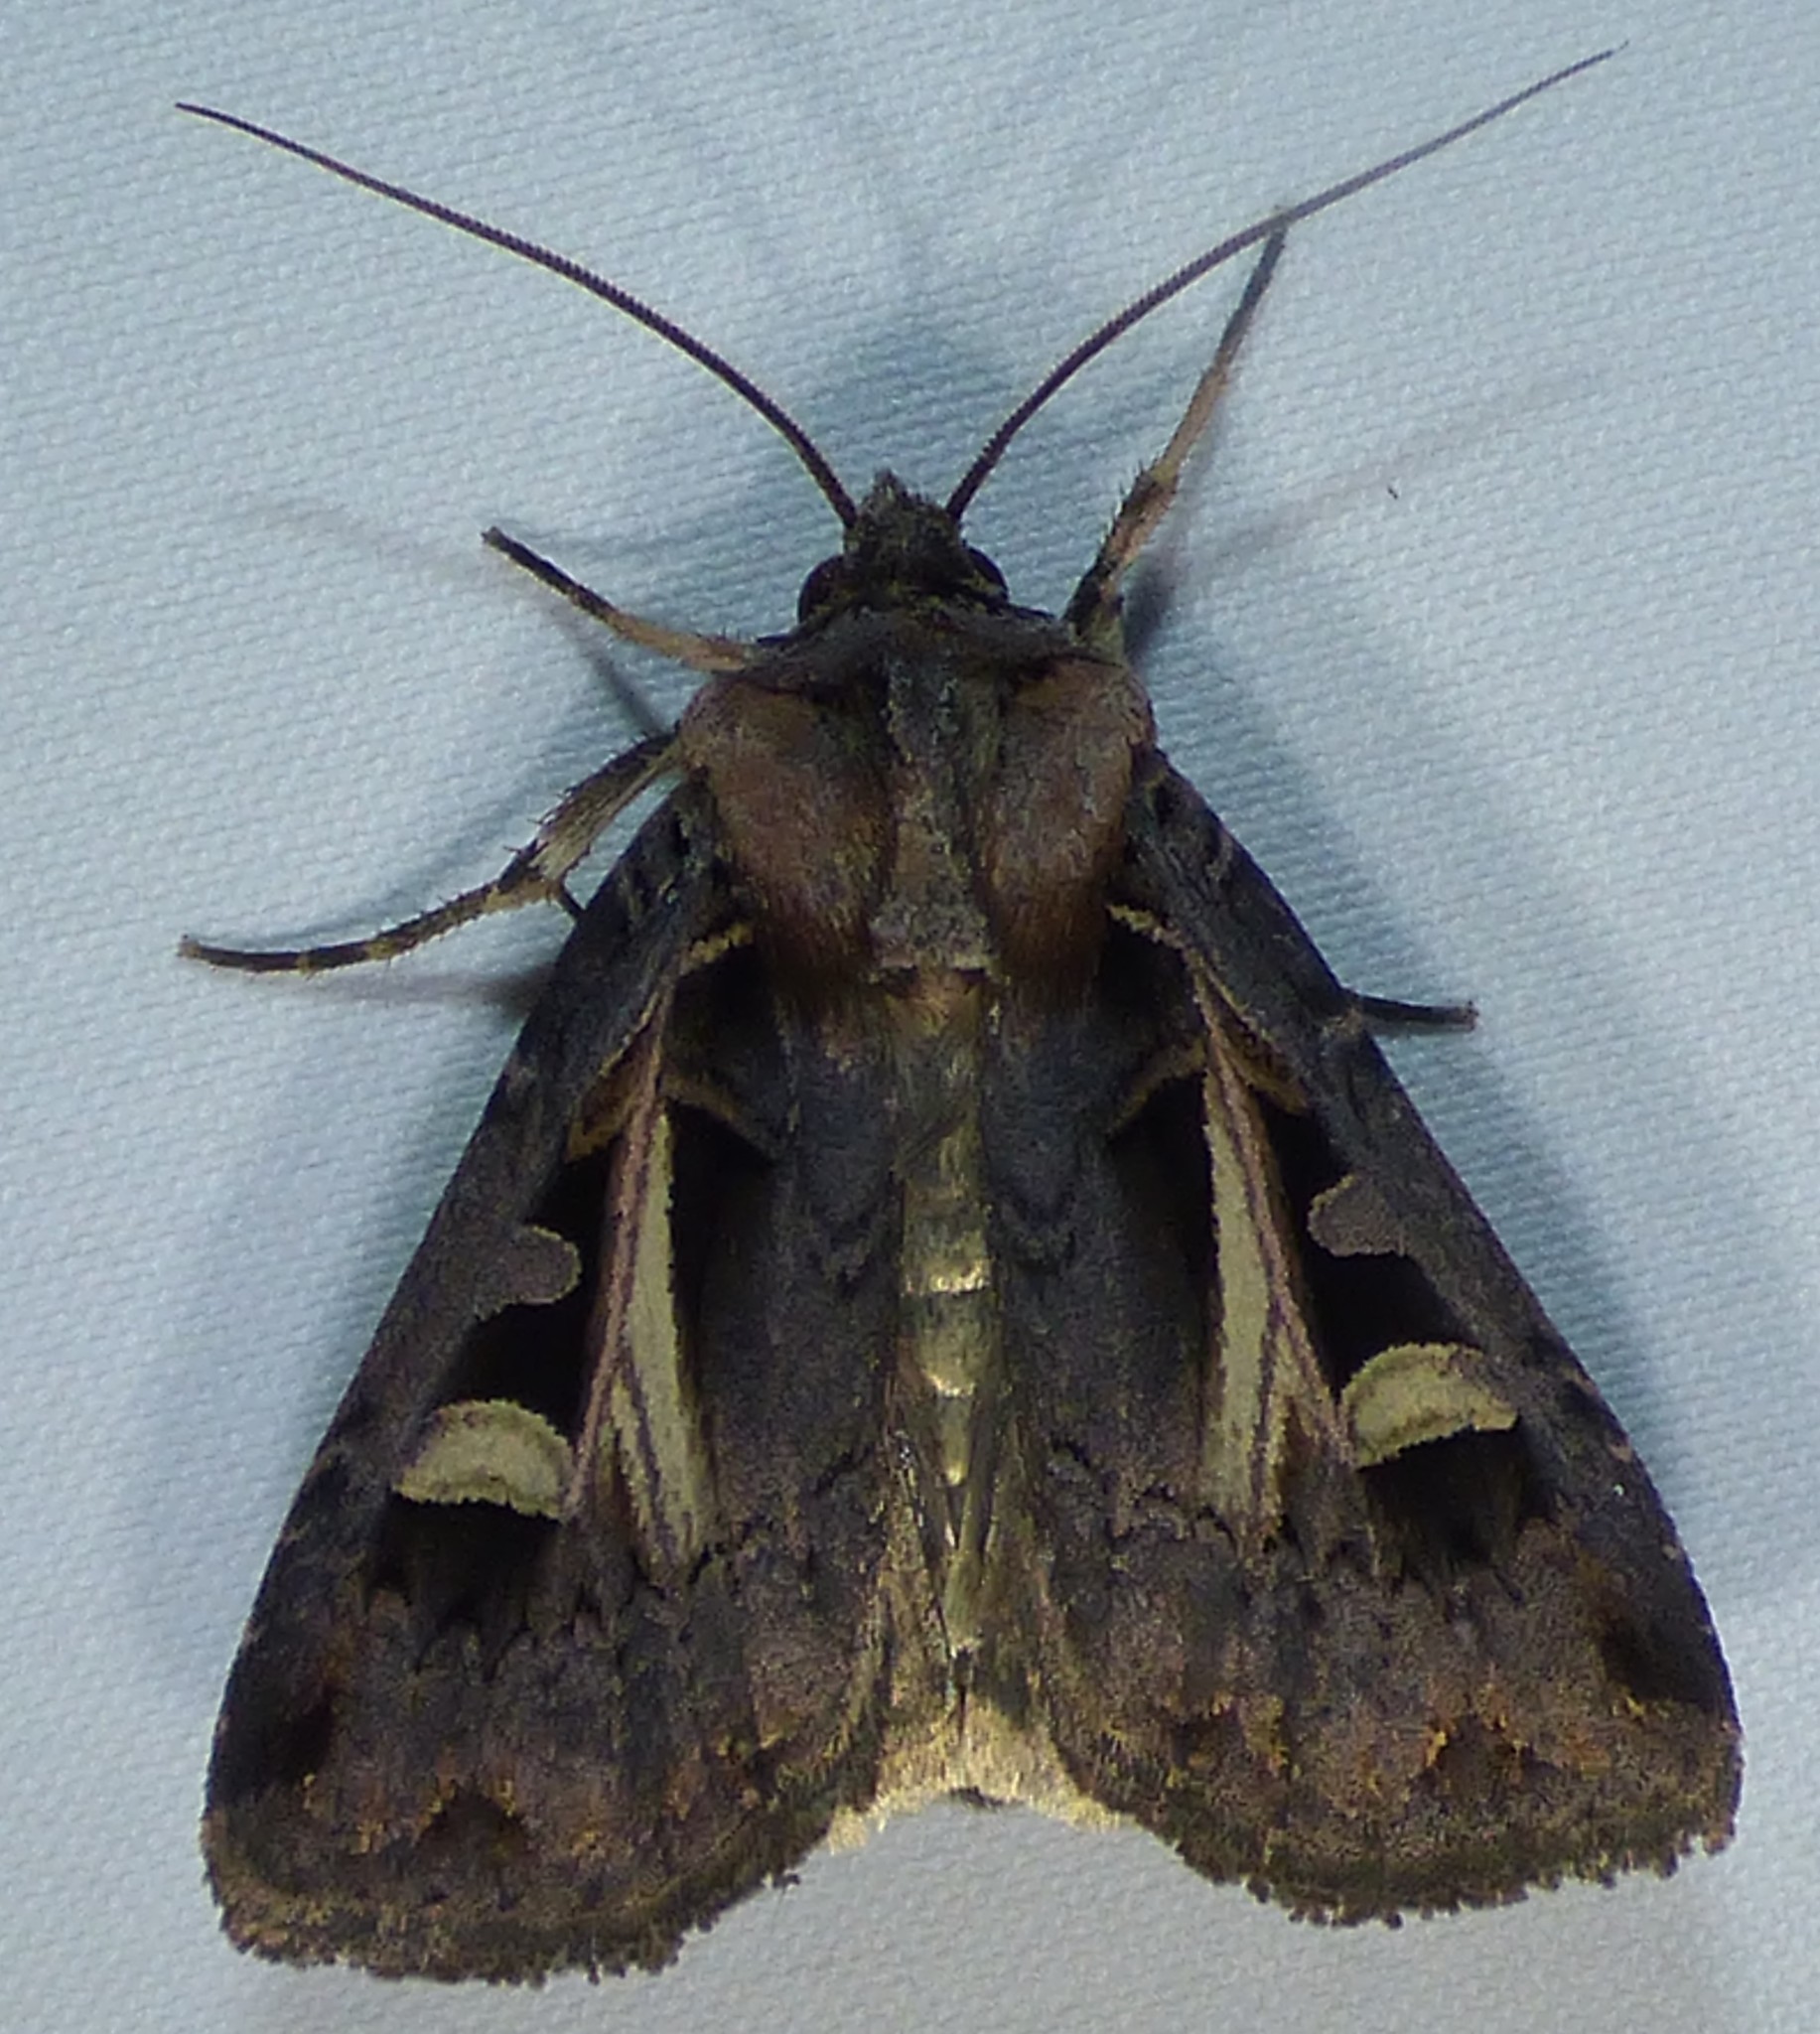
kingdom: Animalia
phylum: Arthropoda
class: Insecta
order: Lepidoptera
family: Noctuidae
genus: Feltia
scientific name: Feltia herilis
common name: Master's dart
